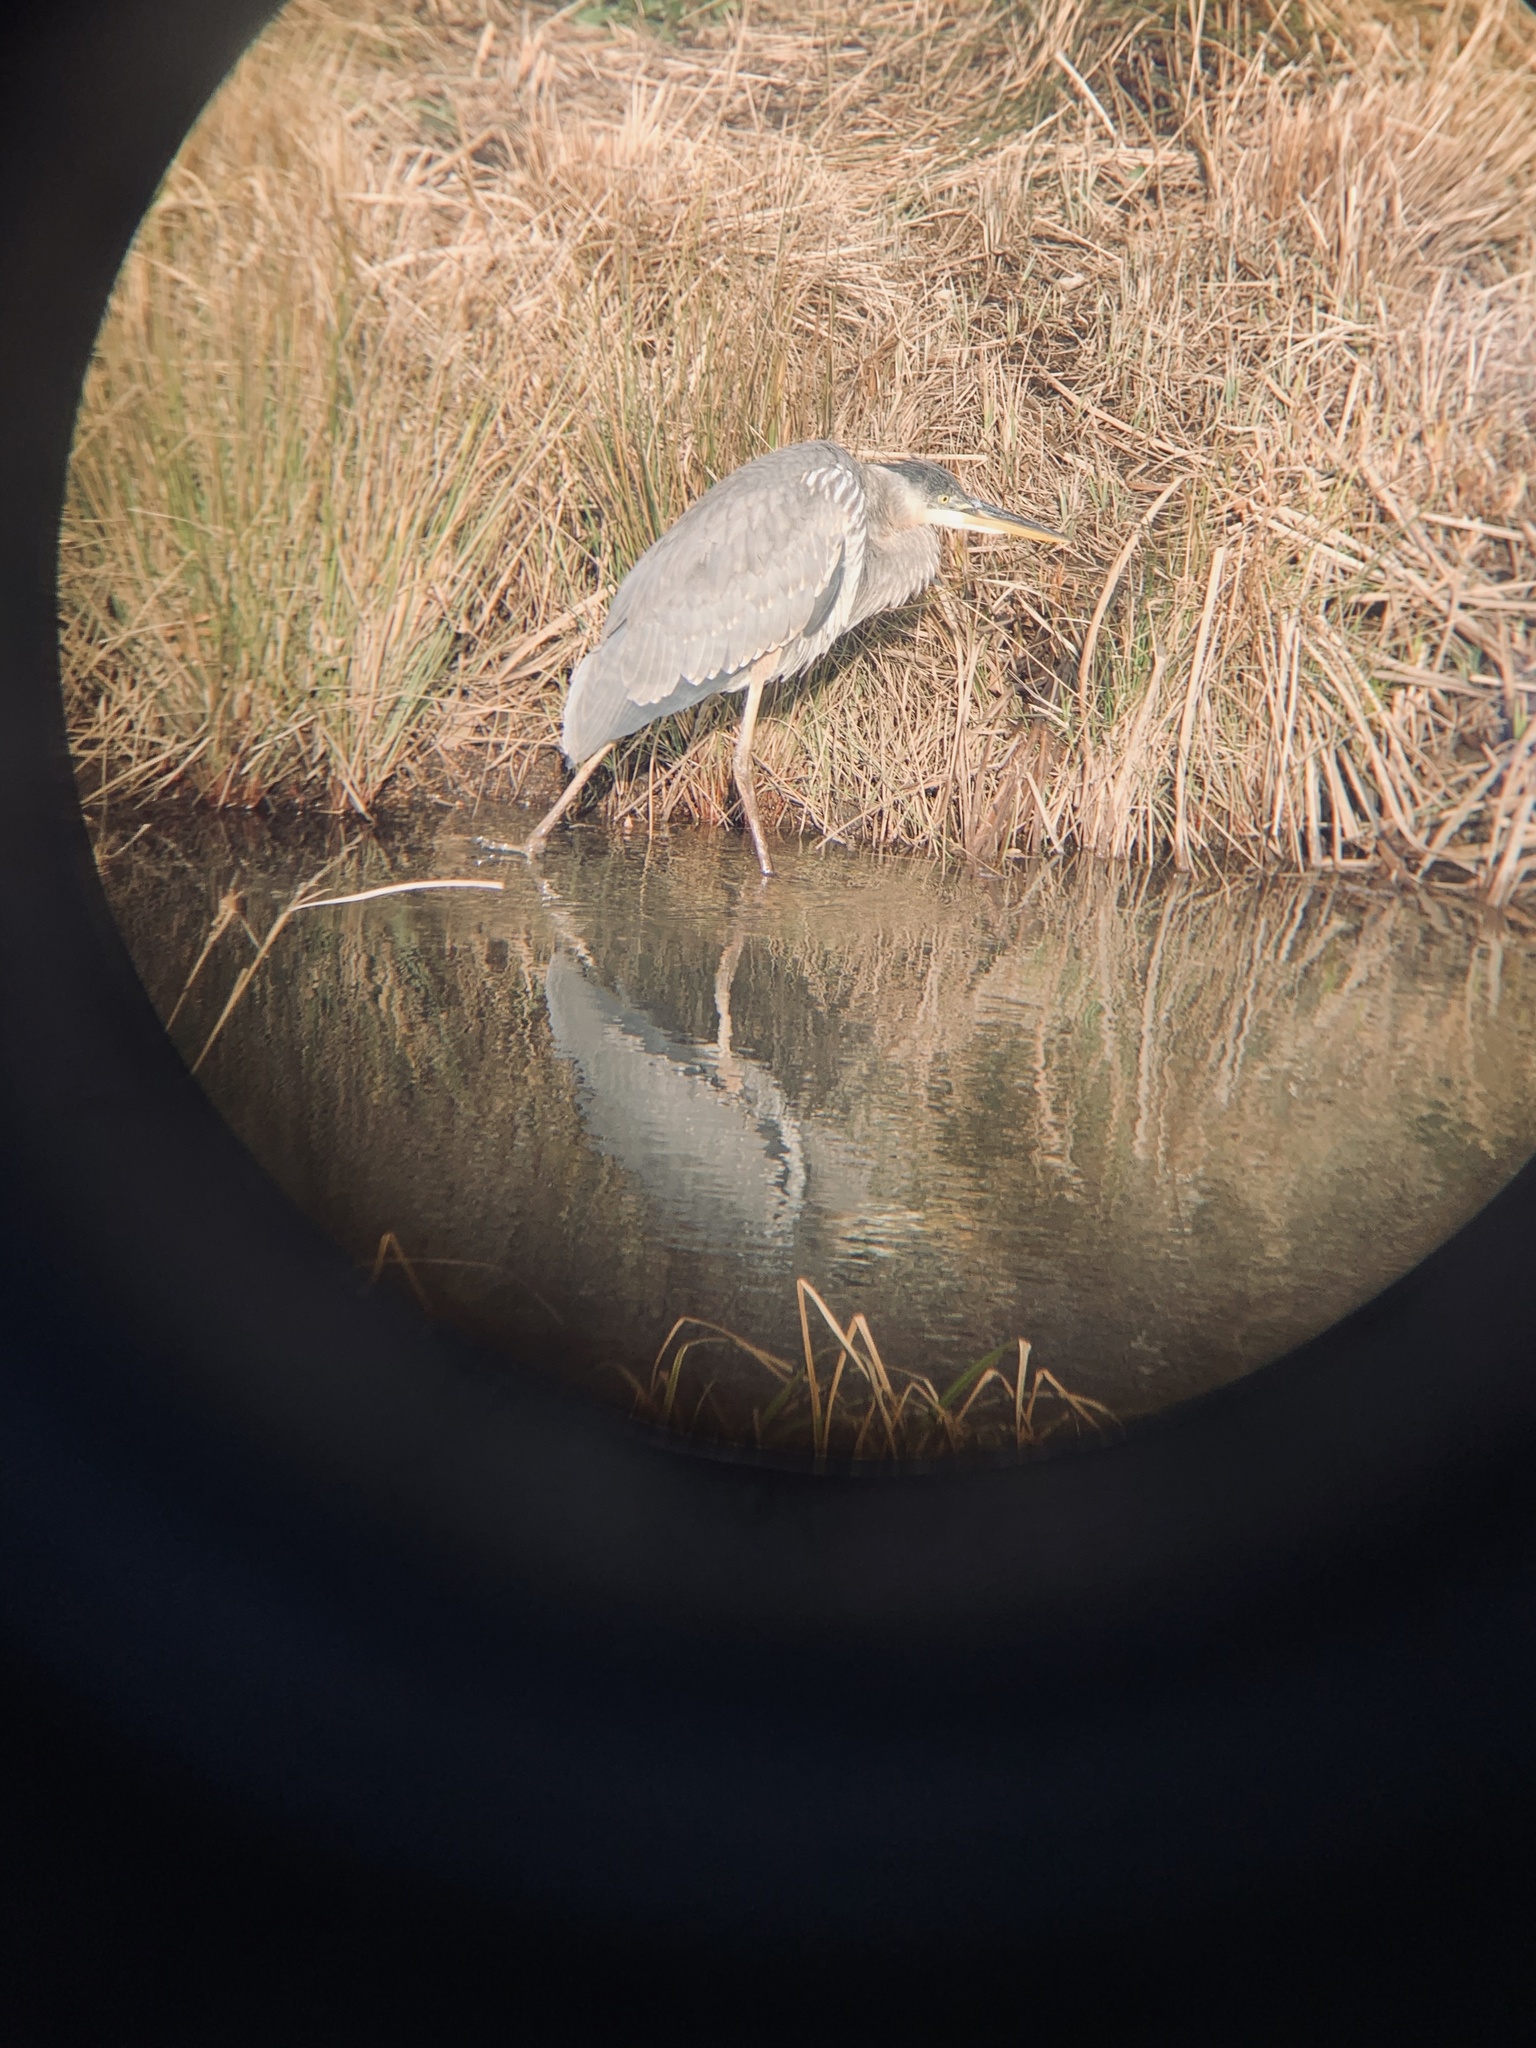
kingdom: Animalia
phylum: Chordata
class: Aves
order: Pelecaniformes
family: Ardeidae
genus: Ardea
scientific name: Ardea herodias
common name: Great blue heron
